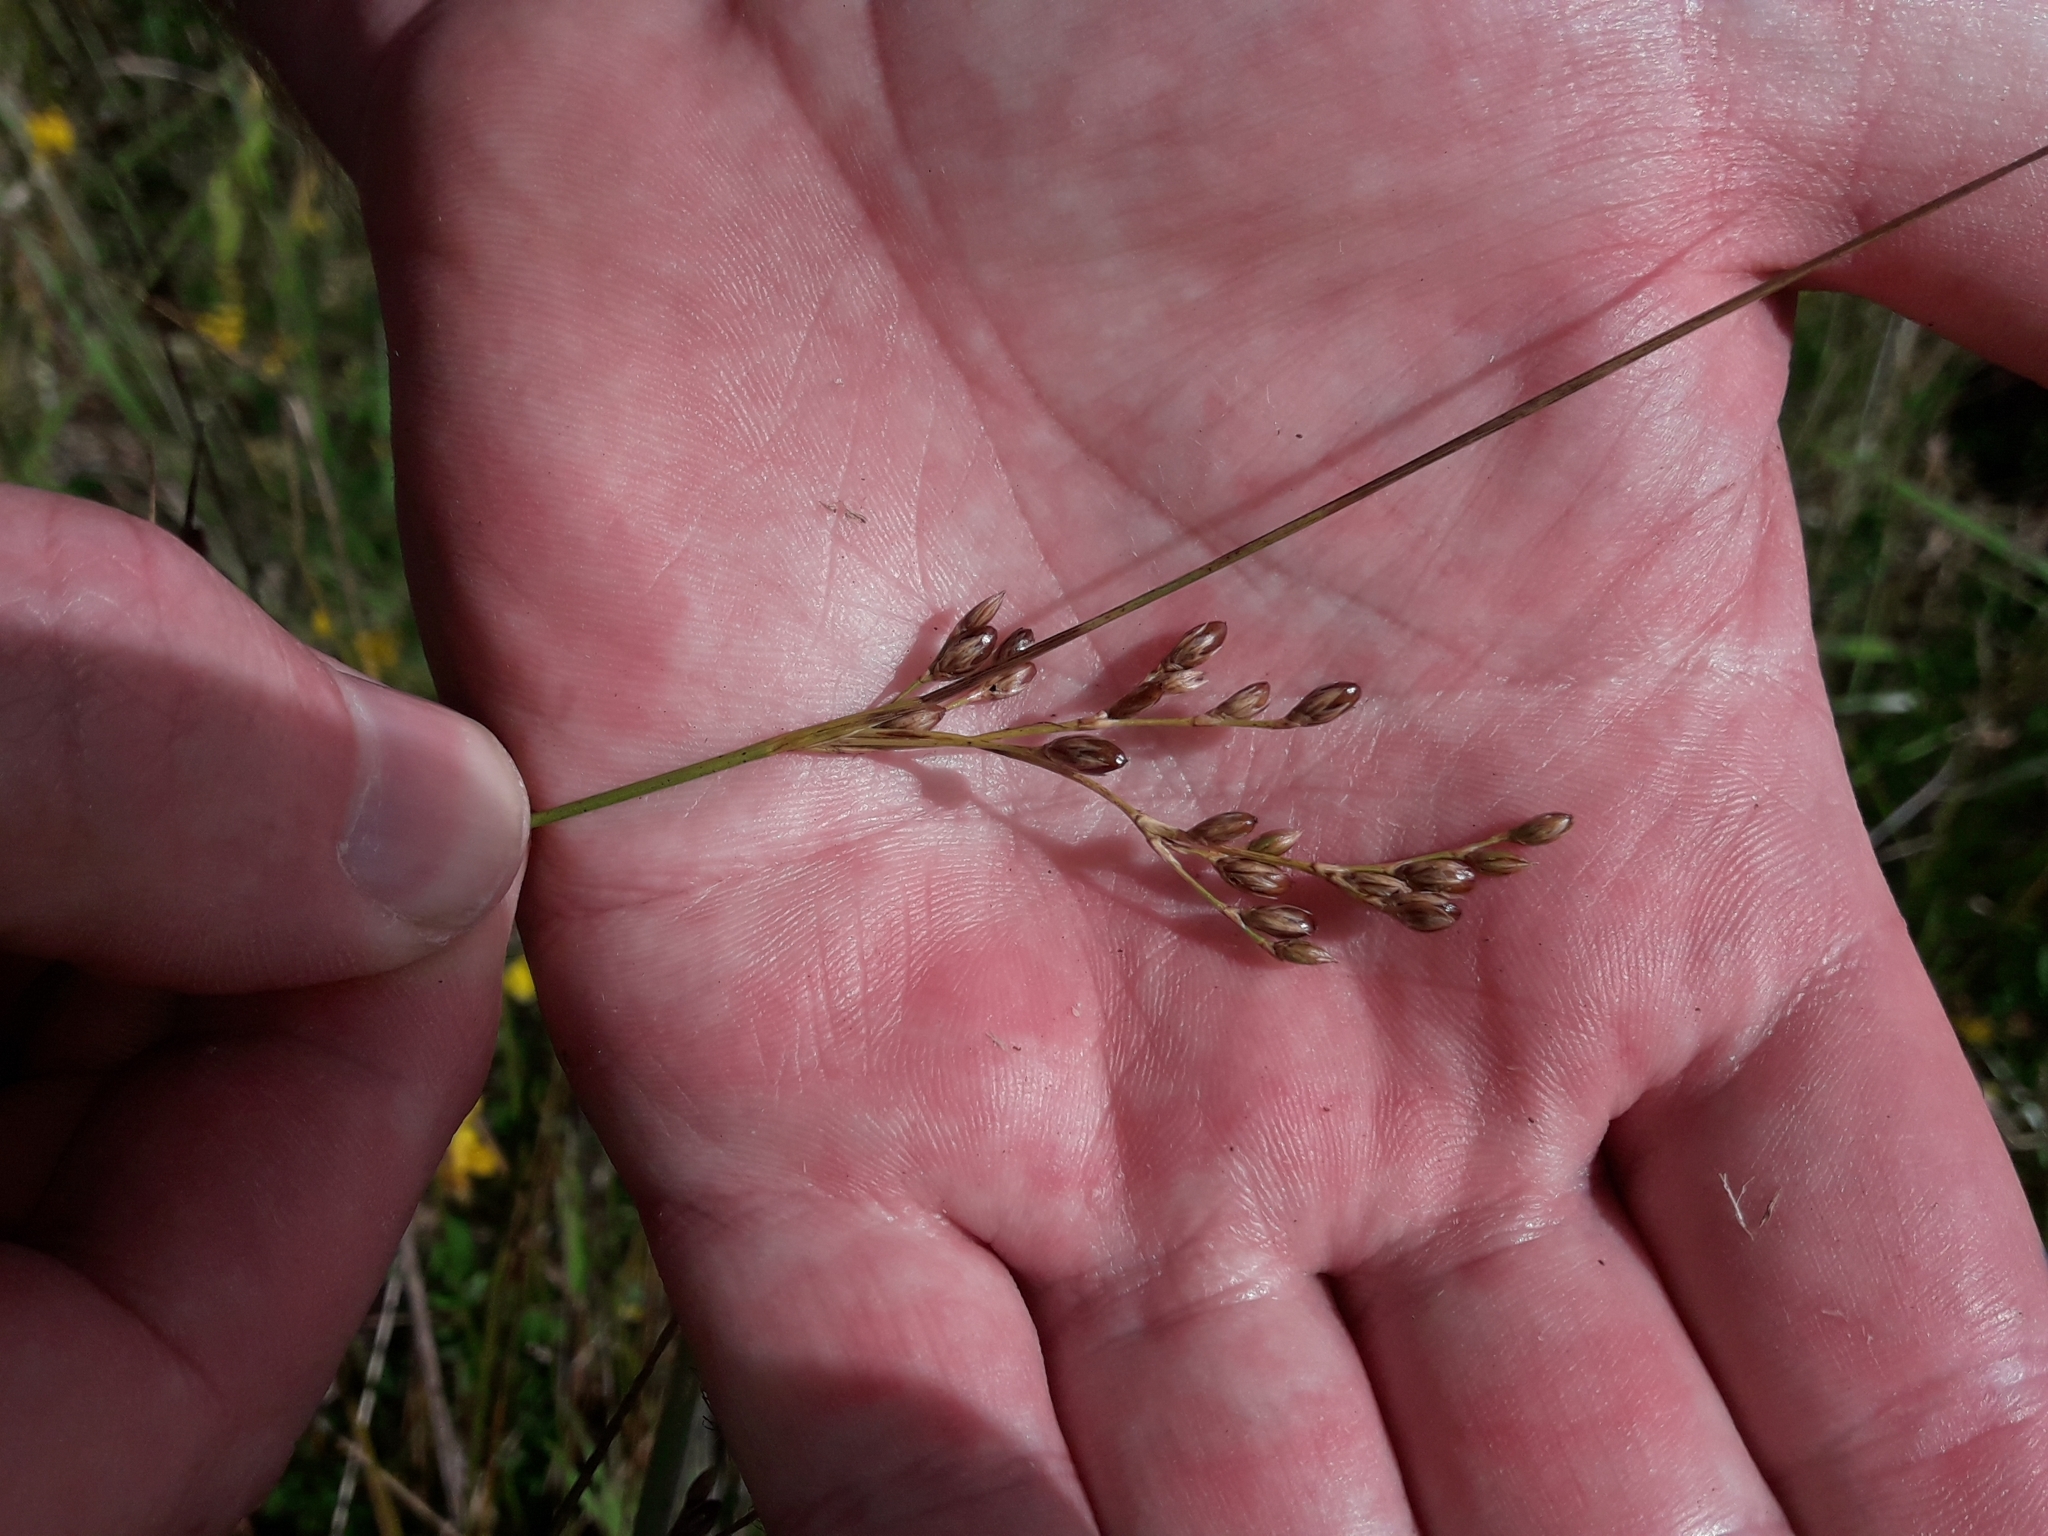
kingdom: Plantae
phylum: Tracheophyta
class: Liliopsida
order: Poales
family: Juncaceae
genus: Juncus
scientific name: Juncus imbricatus
